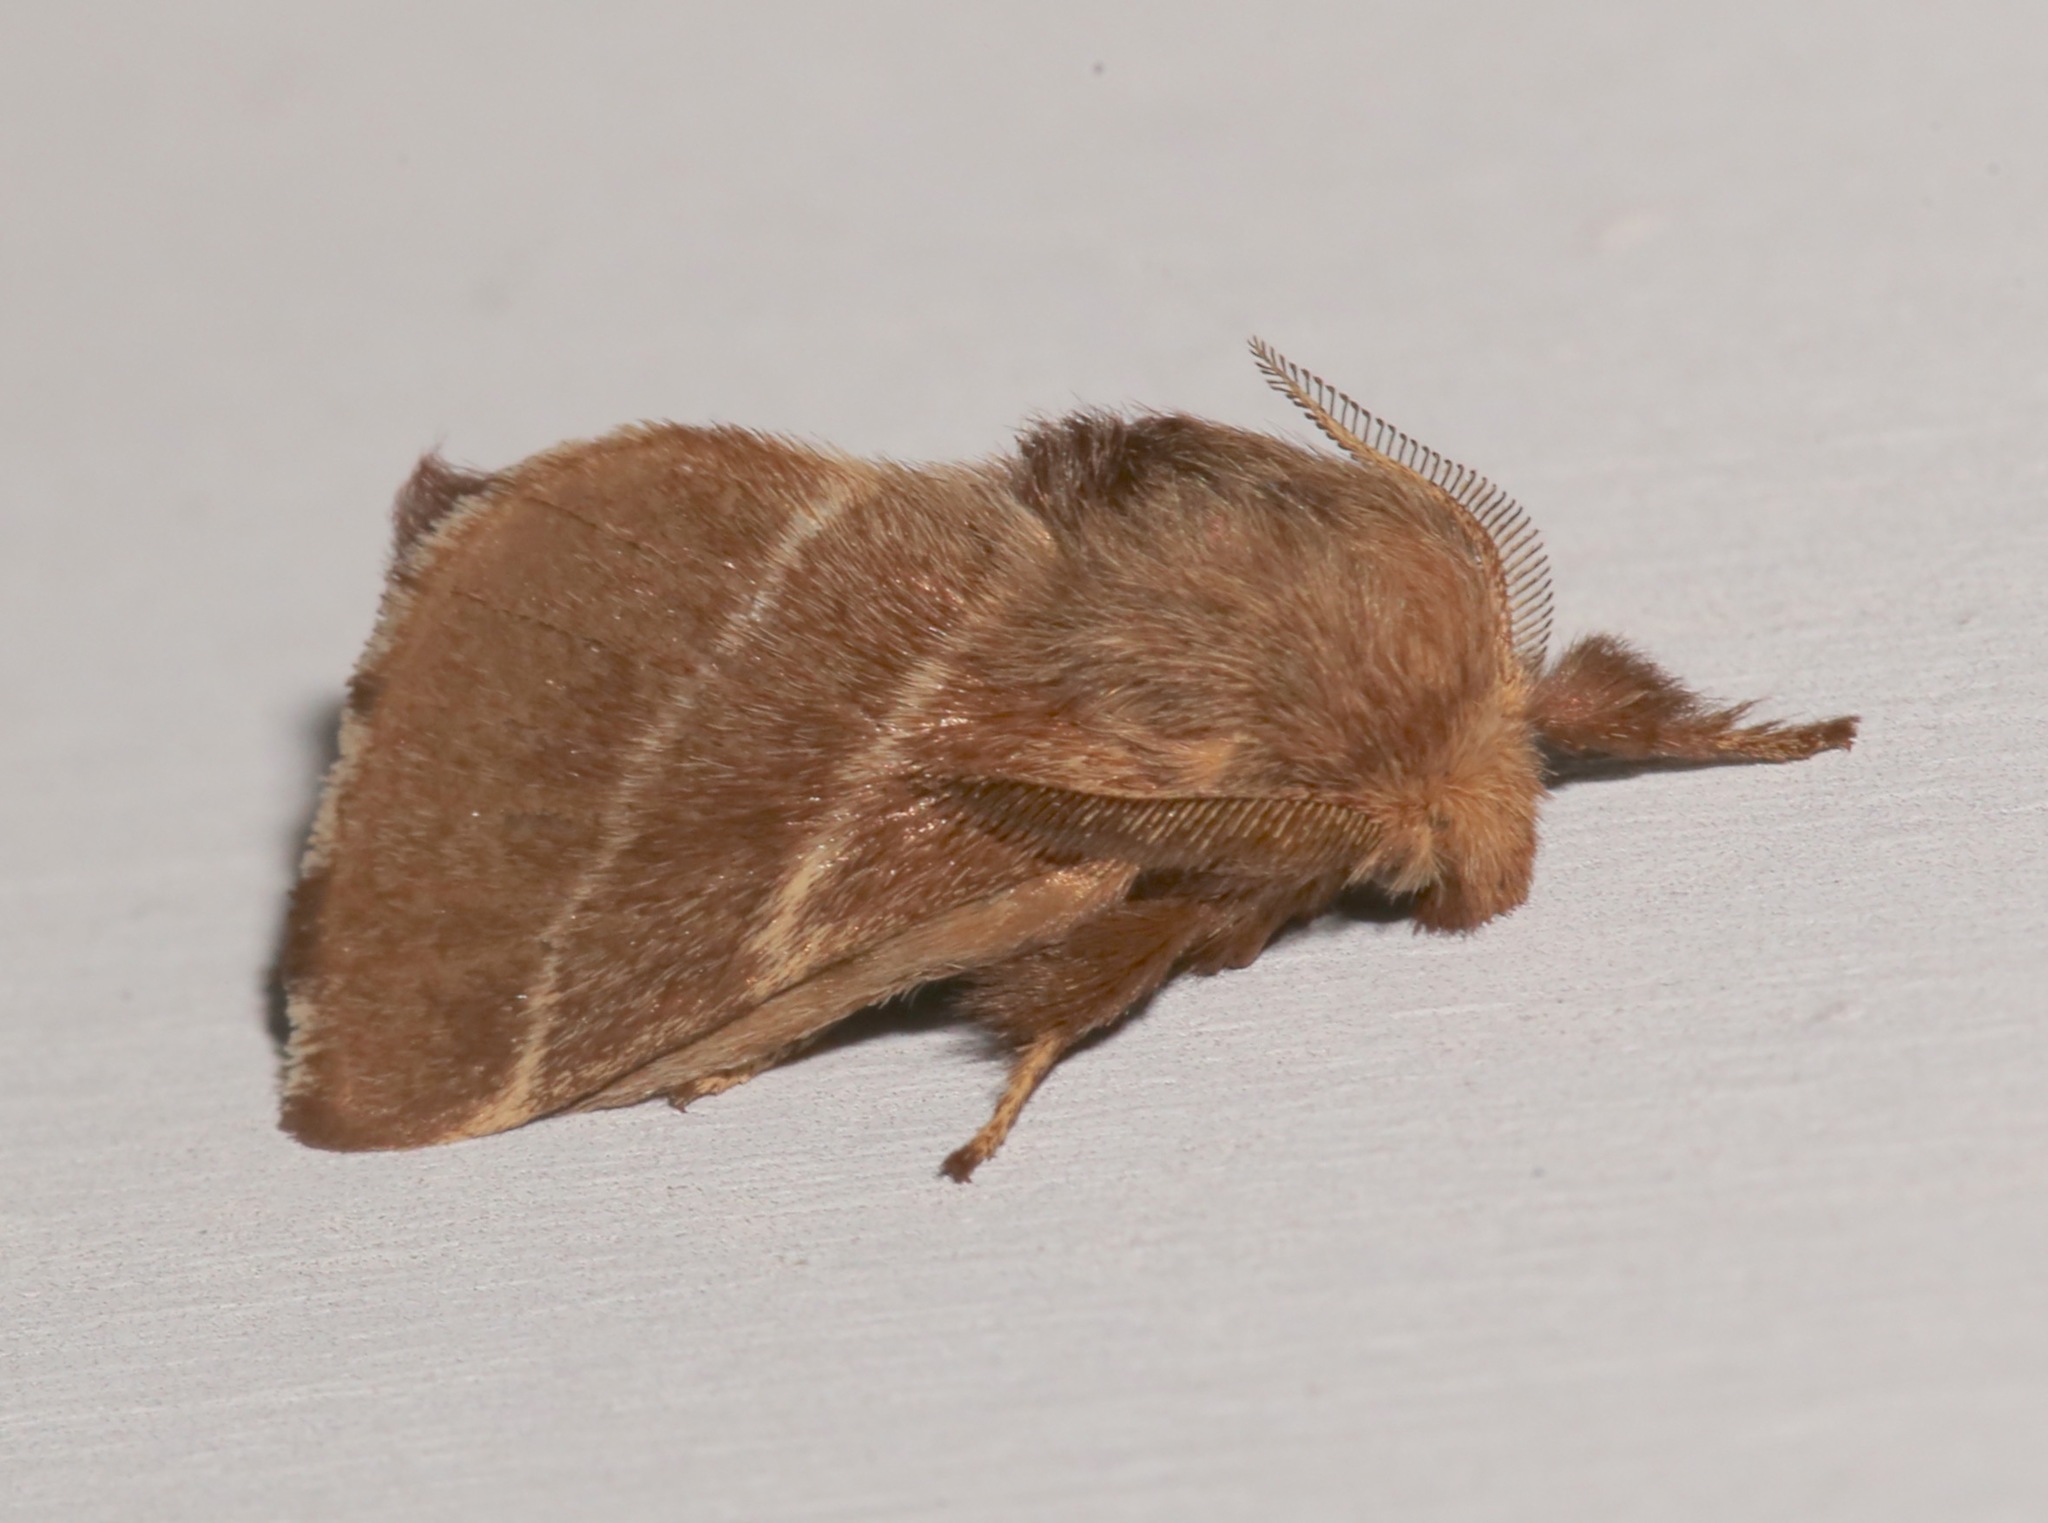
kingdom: Animalia
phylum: Arthropoda
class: Insecta
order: Lepidoptera
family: Lasiocampidae
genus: Malacosoma
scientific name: Malacosoma americana
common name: Eastern tent caterpillar moth
